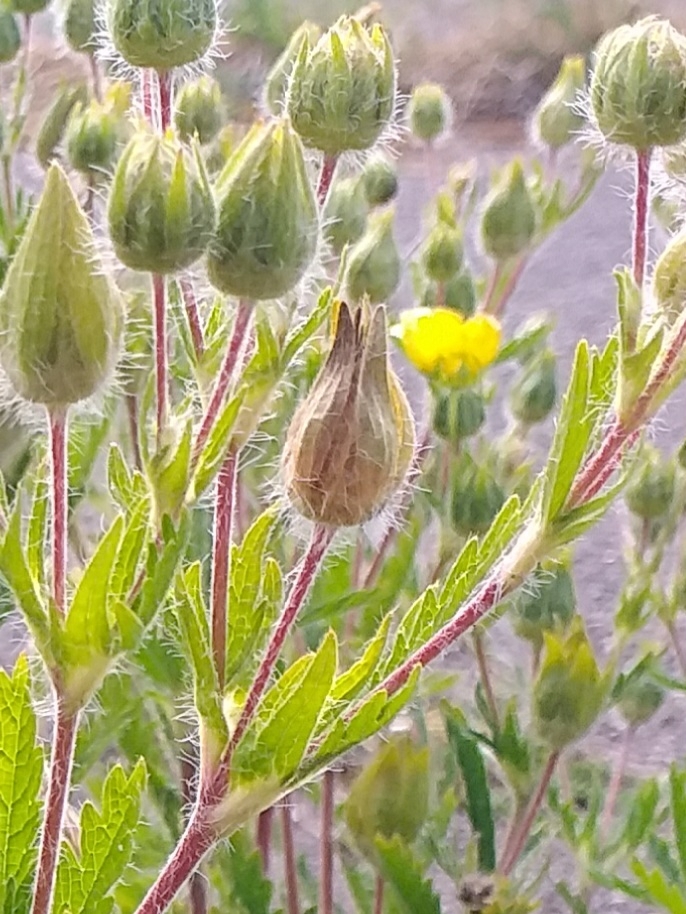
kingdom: Plantae
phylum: Tracheophyta
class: Magnoliopsida
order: Rosales
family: Rosaceae
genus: Potentilla
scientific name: Potentilla recta
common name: Sulphur cinquefoil
